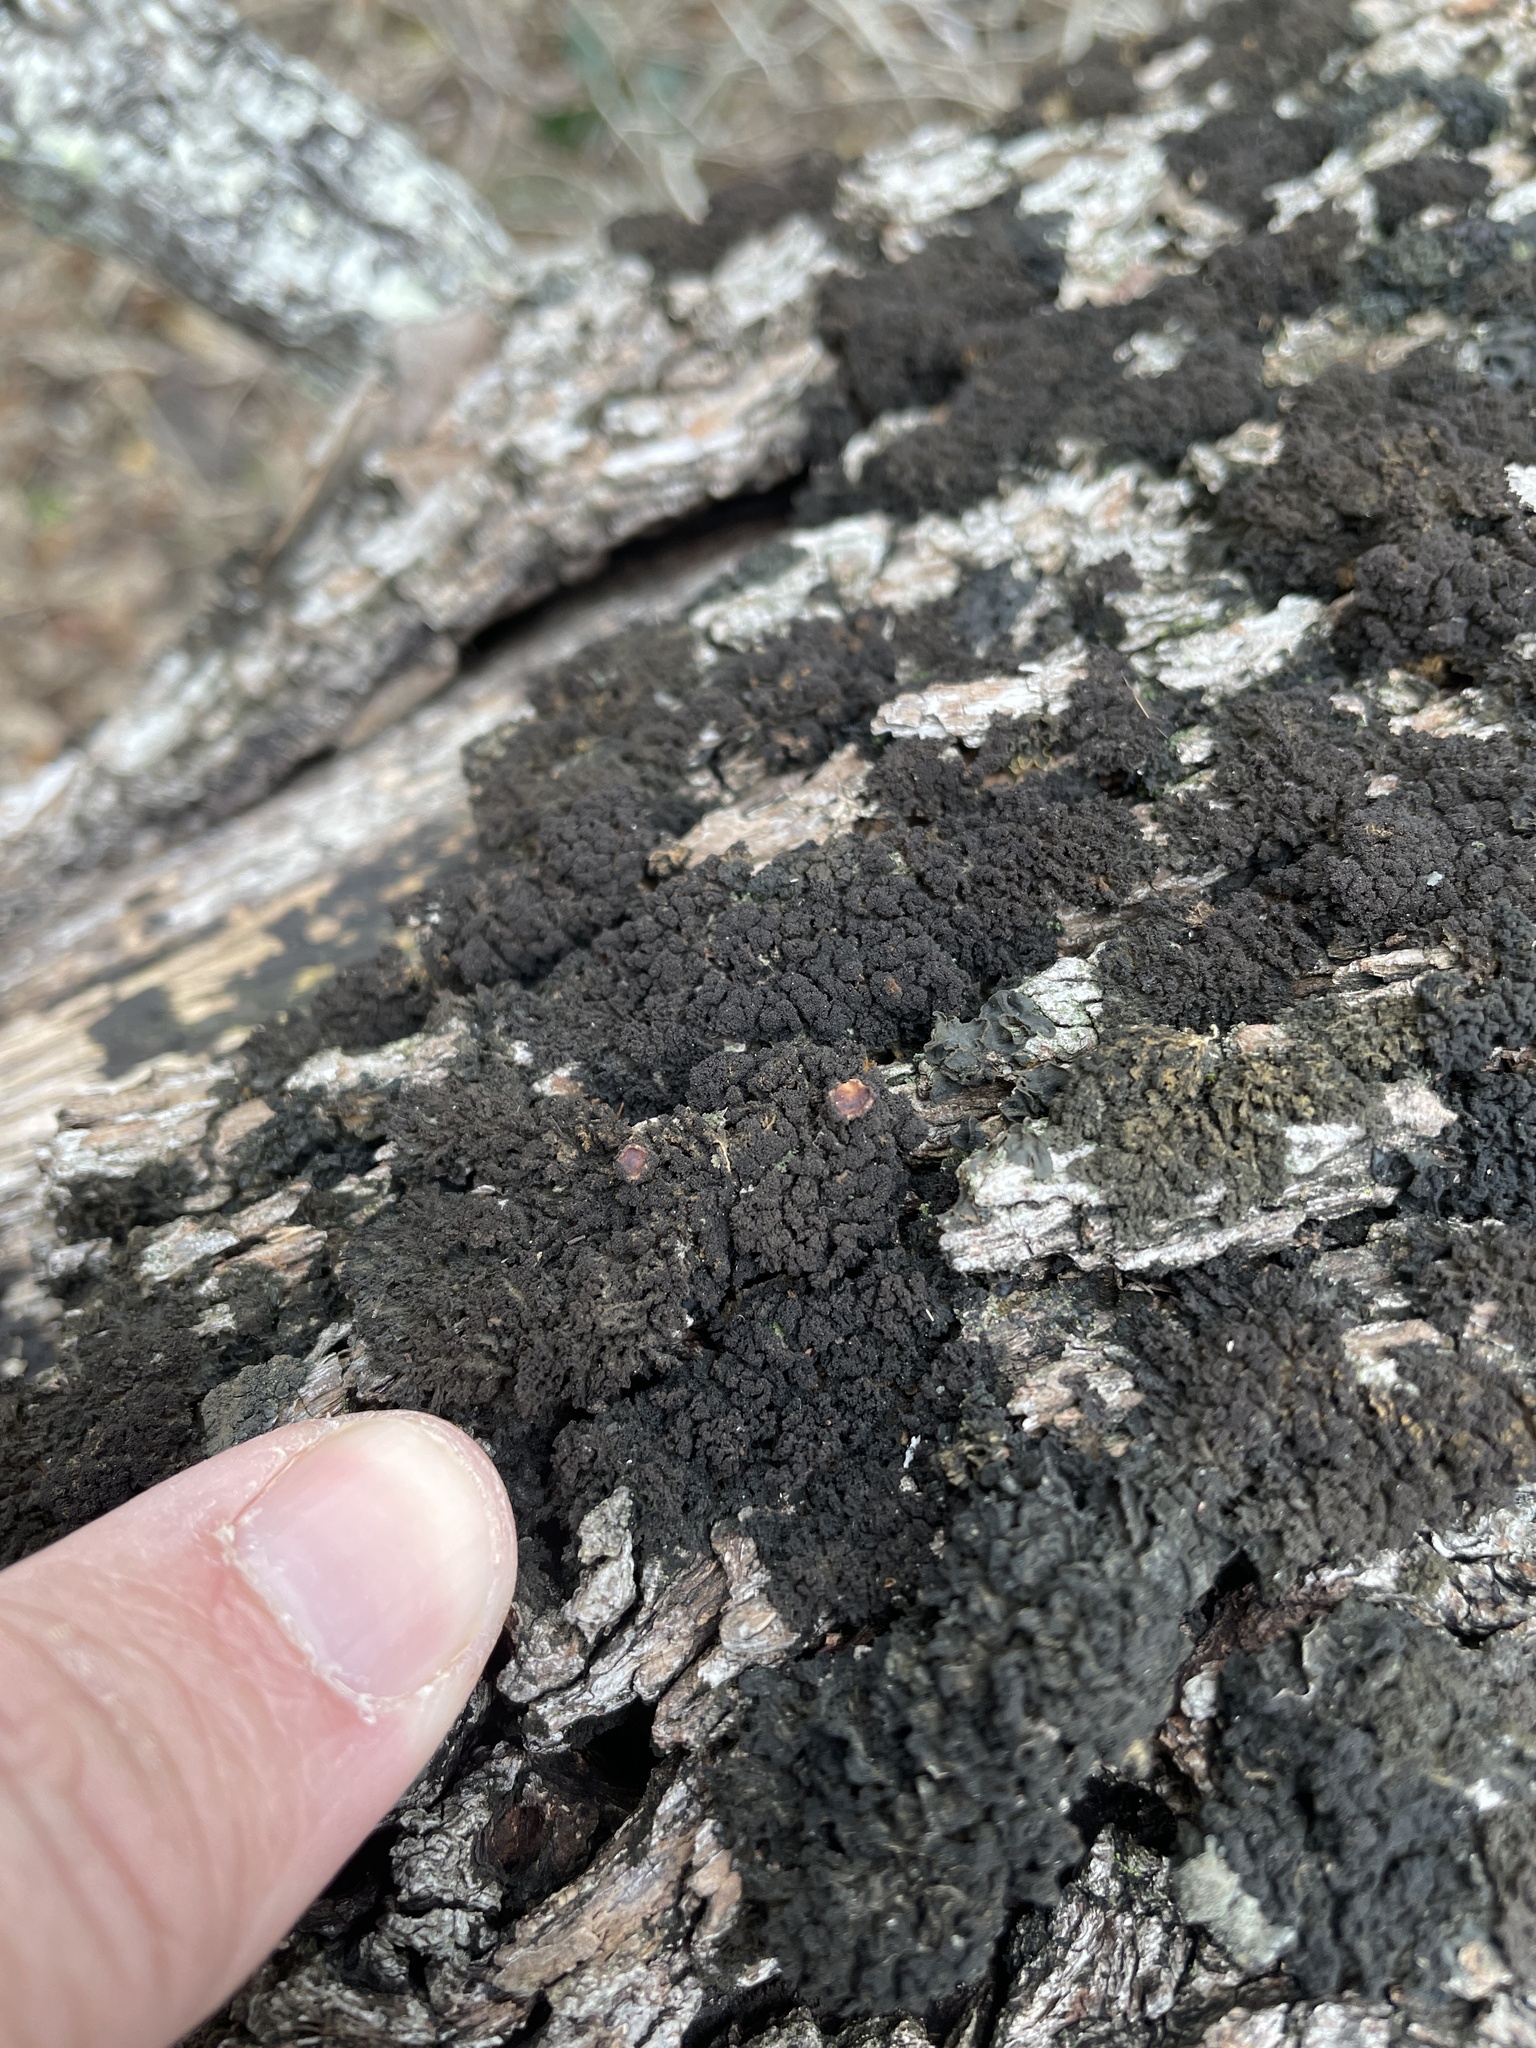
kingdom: Fungi
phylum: Basidiomycota
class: Agaricomycetes
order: Auriculariales
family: Auriculariaceae
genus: Exidia
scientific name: Exidia glandulosa
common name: Witches' butter
